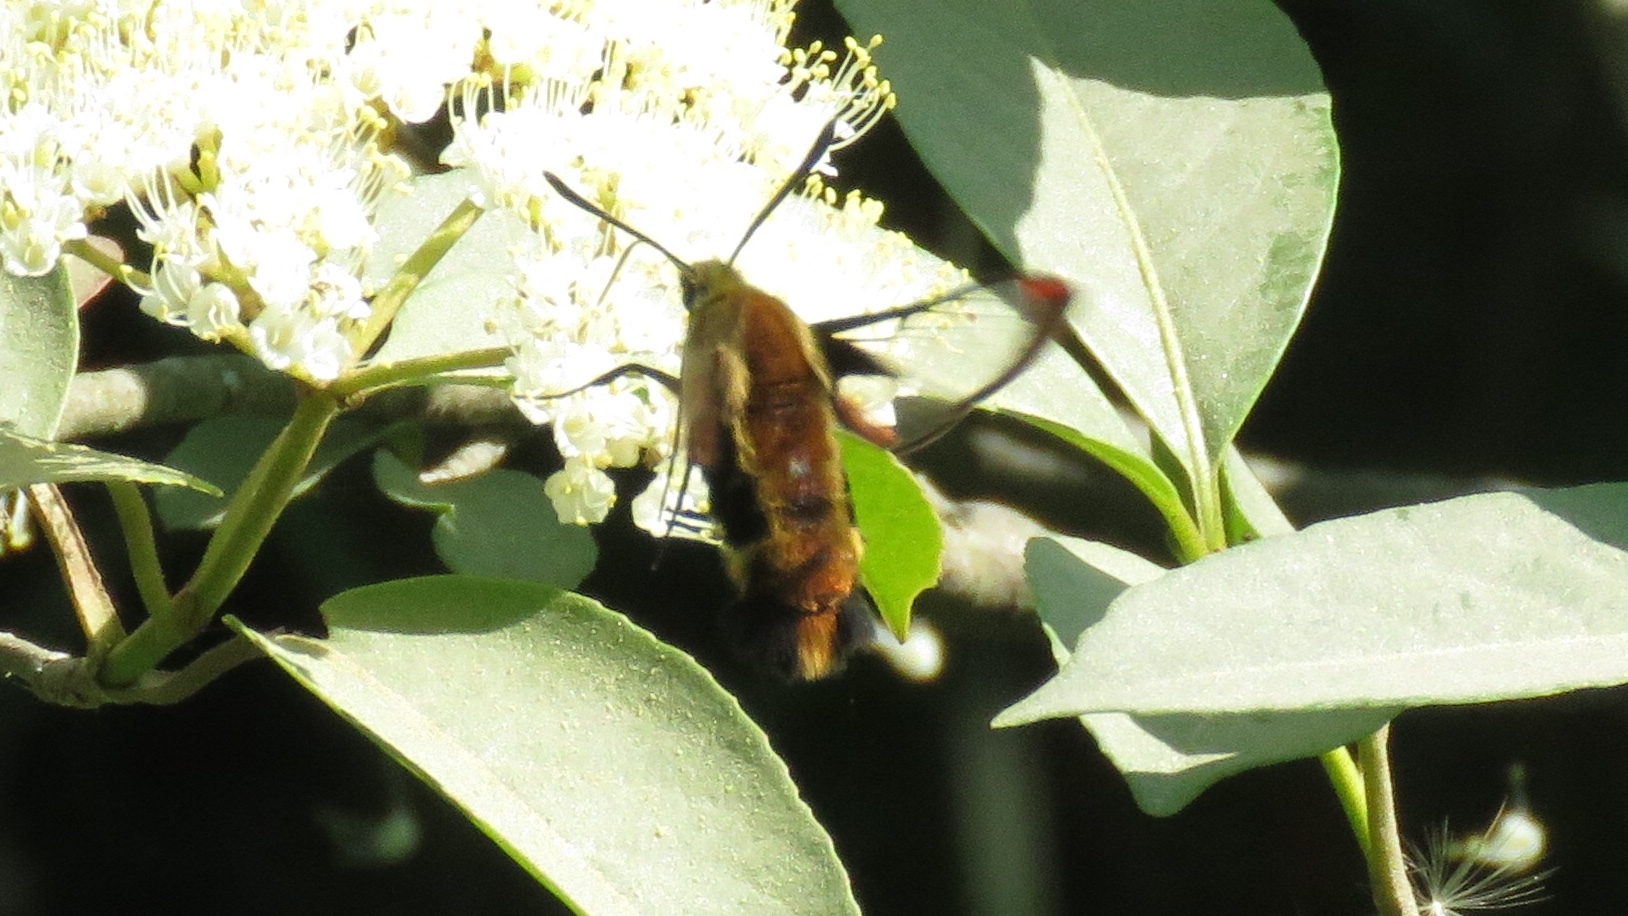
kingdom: Animalia
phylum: Arthropoda
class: Insecta
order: Lepidoptera
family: Sphingidae
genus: Hemaris
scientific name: Hemaris diffinis
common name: Bumblebee moth
